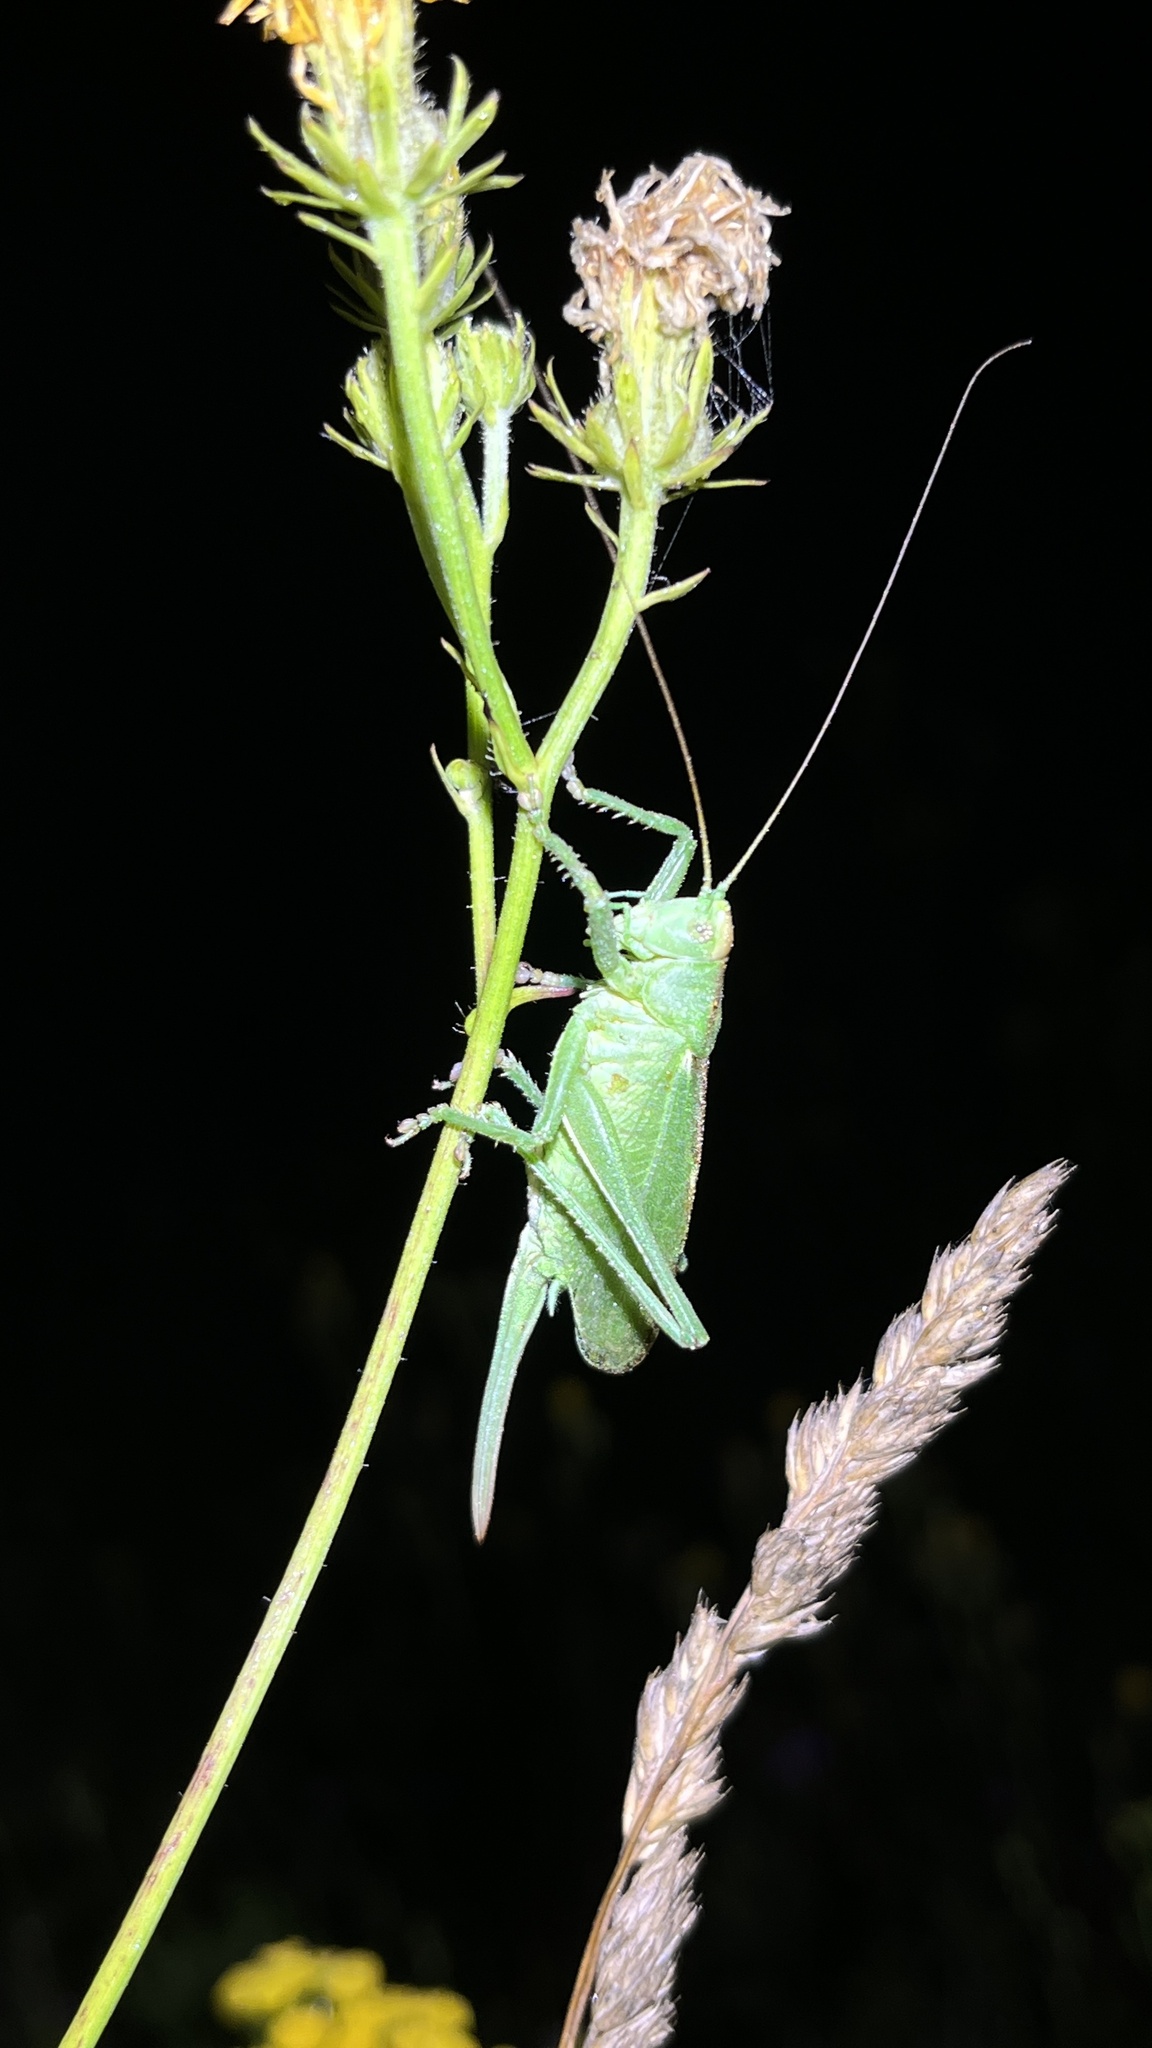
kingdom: Animalia
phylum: Arthropoda
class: Insecta
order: Orthoptera
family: Tettigoniidae
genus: Tettigonia
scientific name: Tettigonia cantans
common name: Upland green bush-cricket
